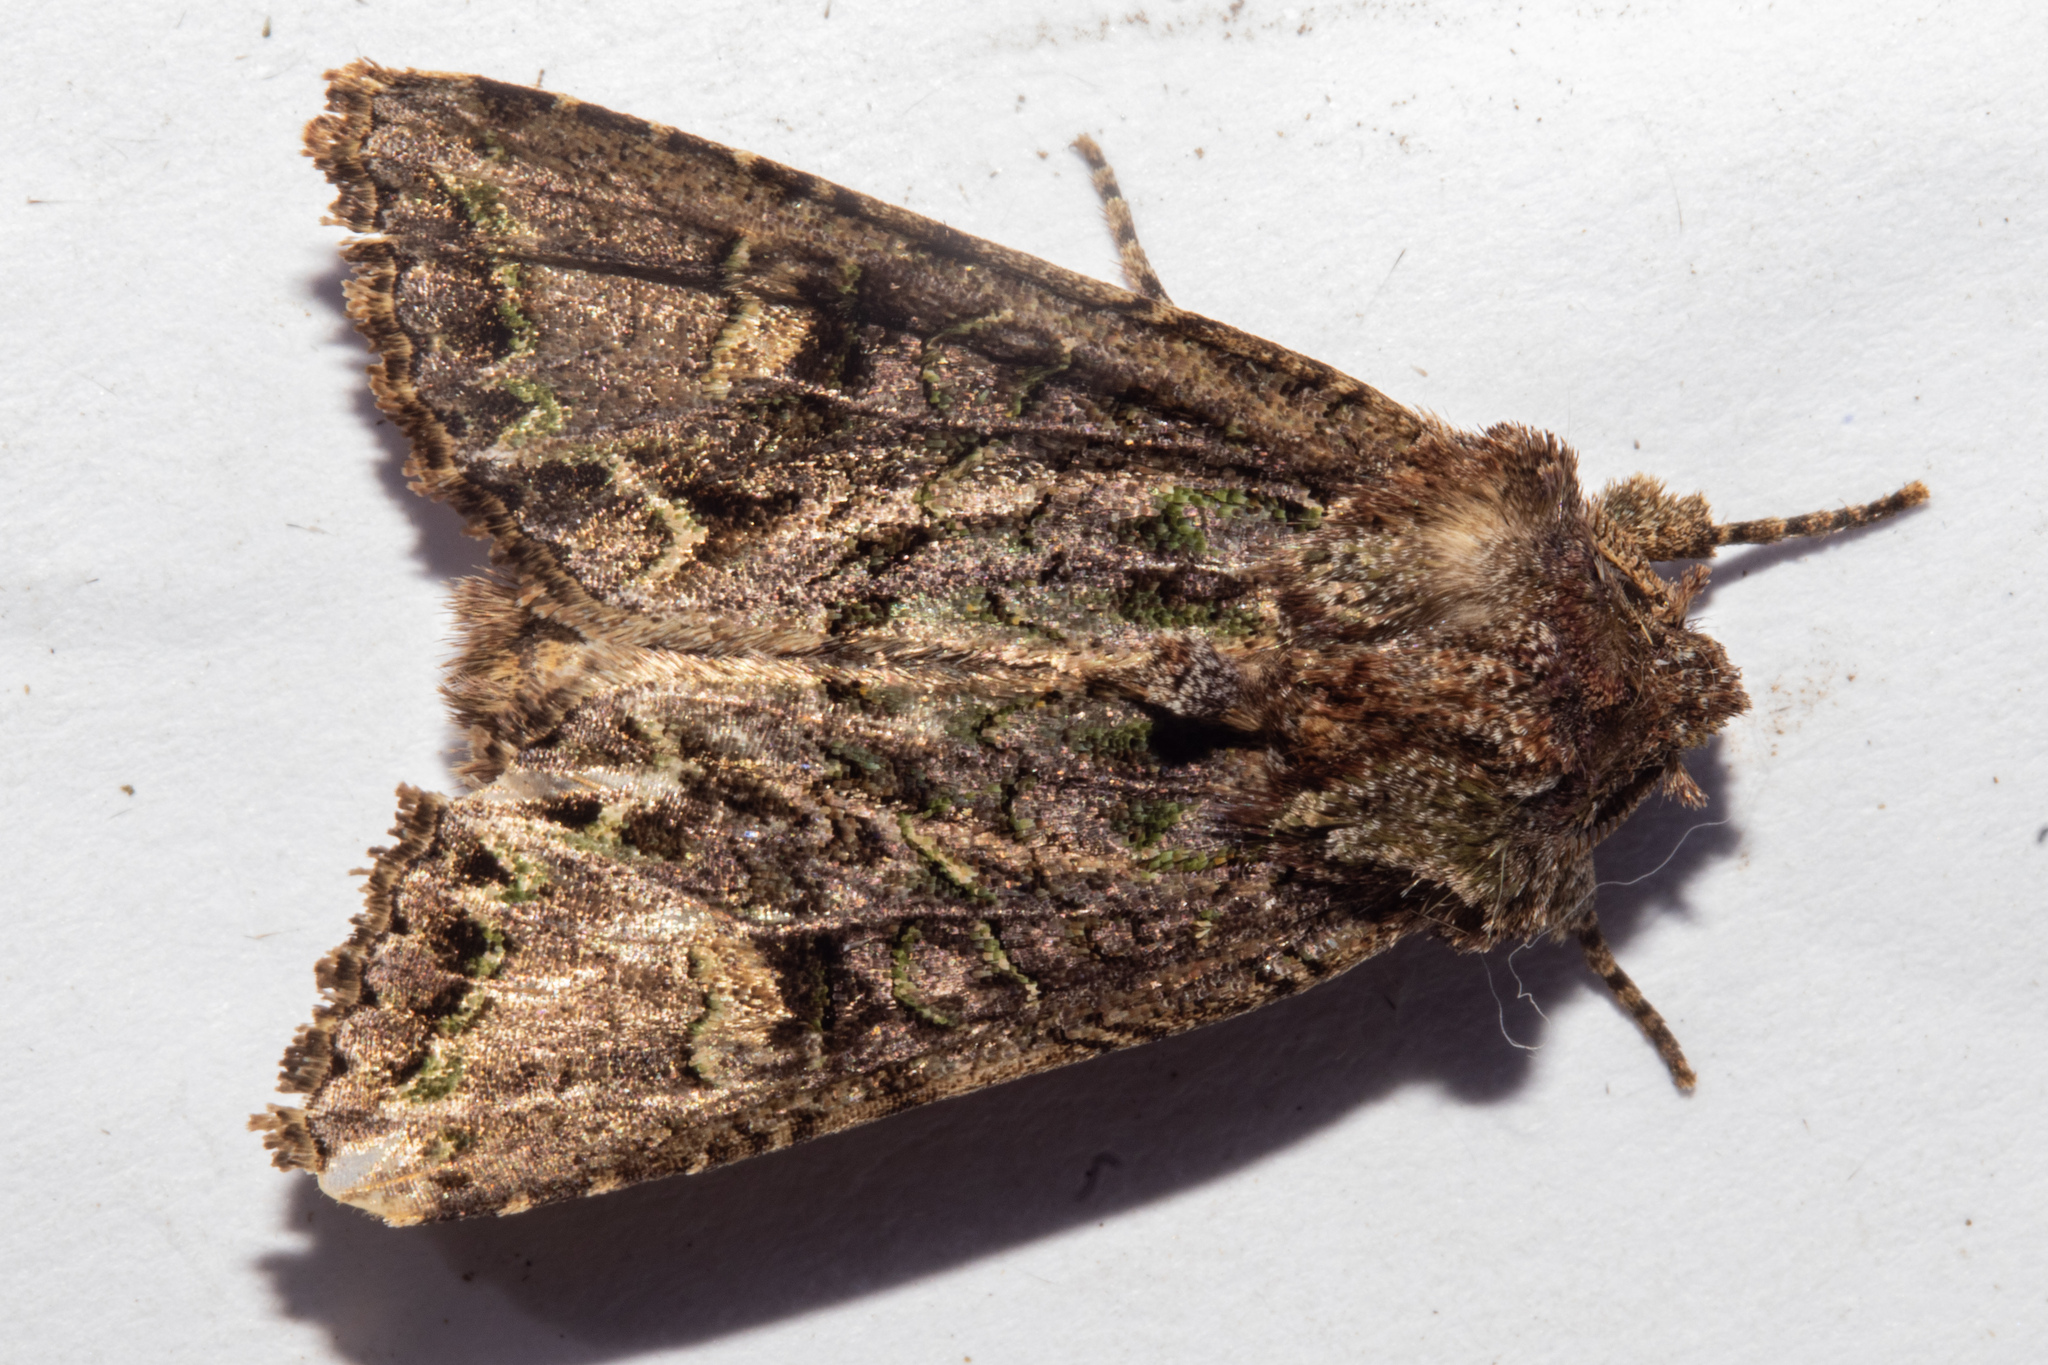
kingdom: Animalia
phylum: Arthropoda
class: Insecta
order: Lepidoptera
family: Noctuidae
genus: Ichneutica
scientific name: Ichneutica insignis
